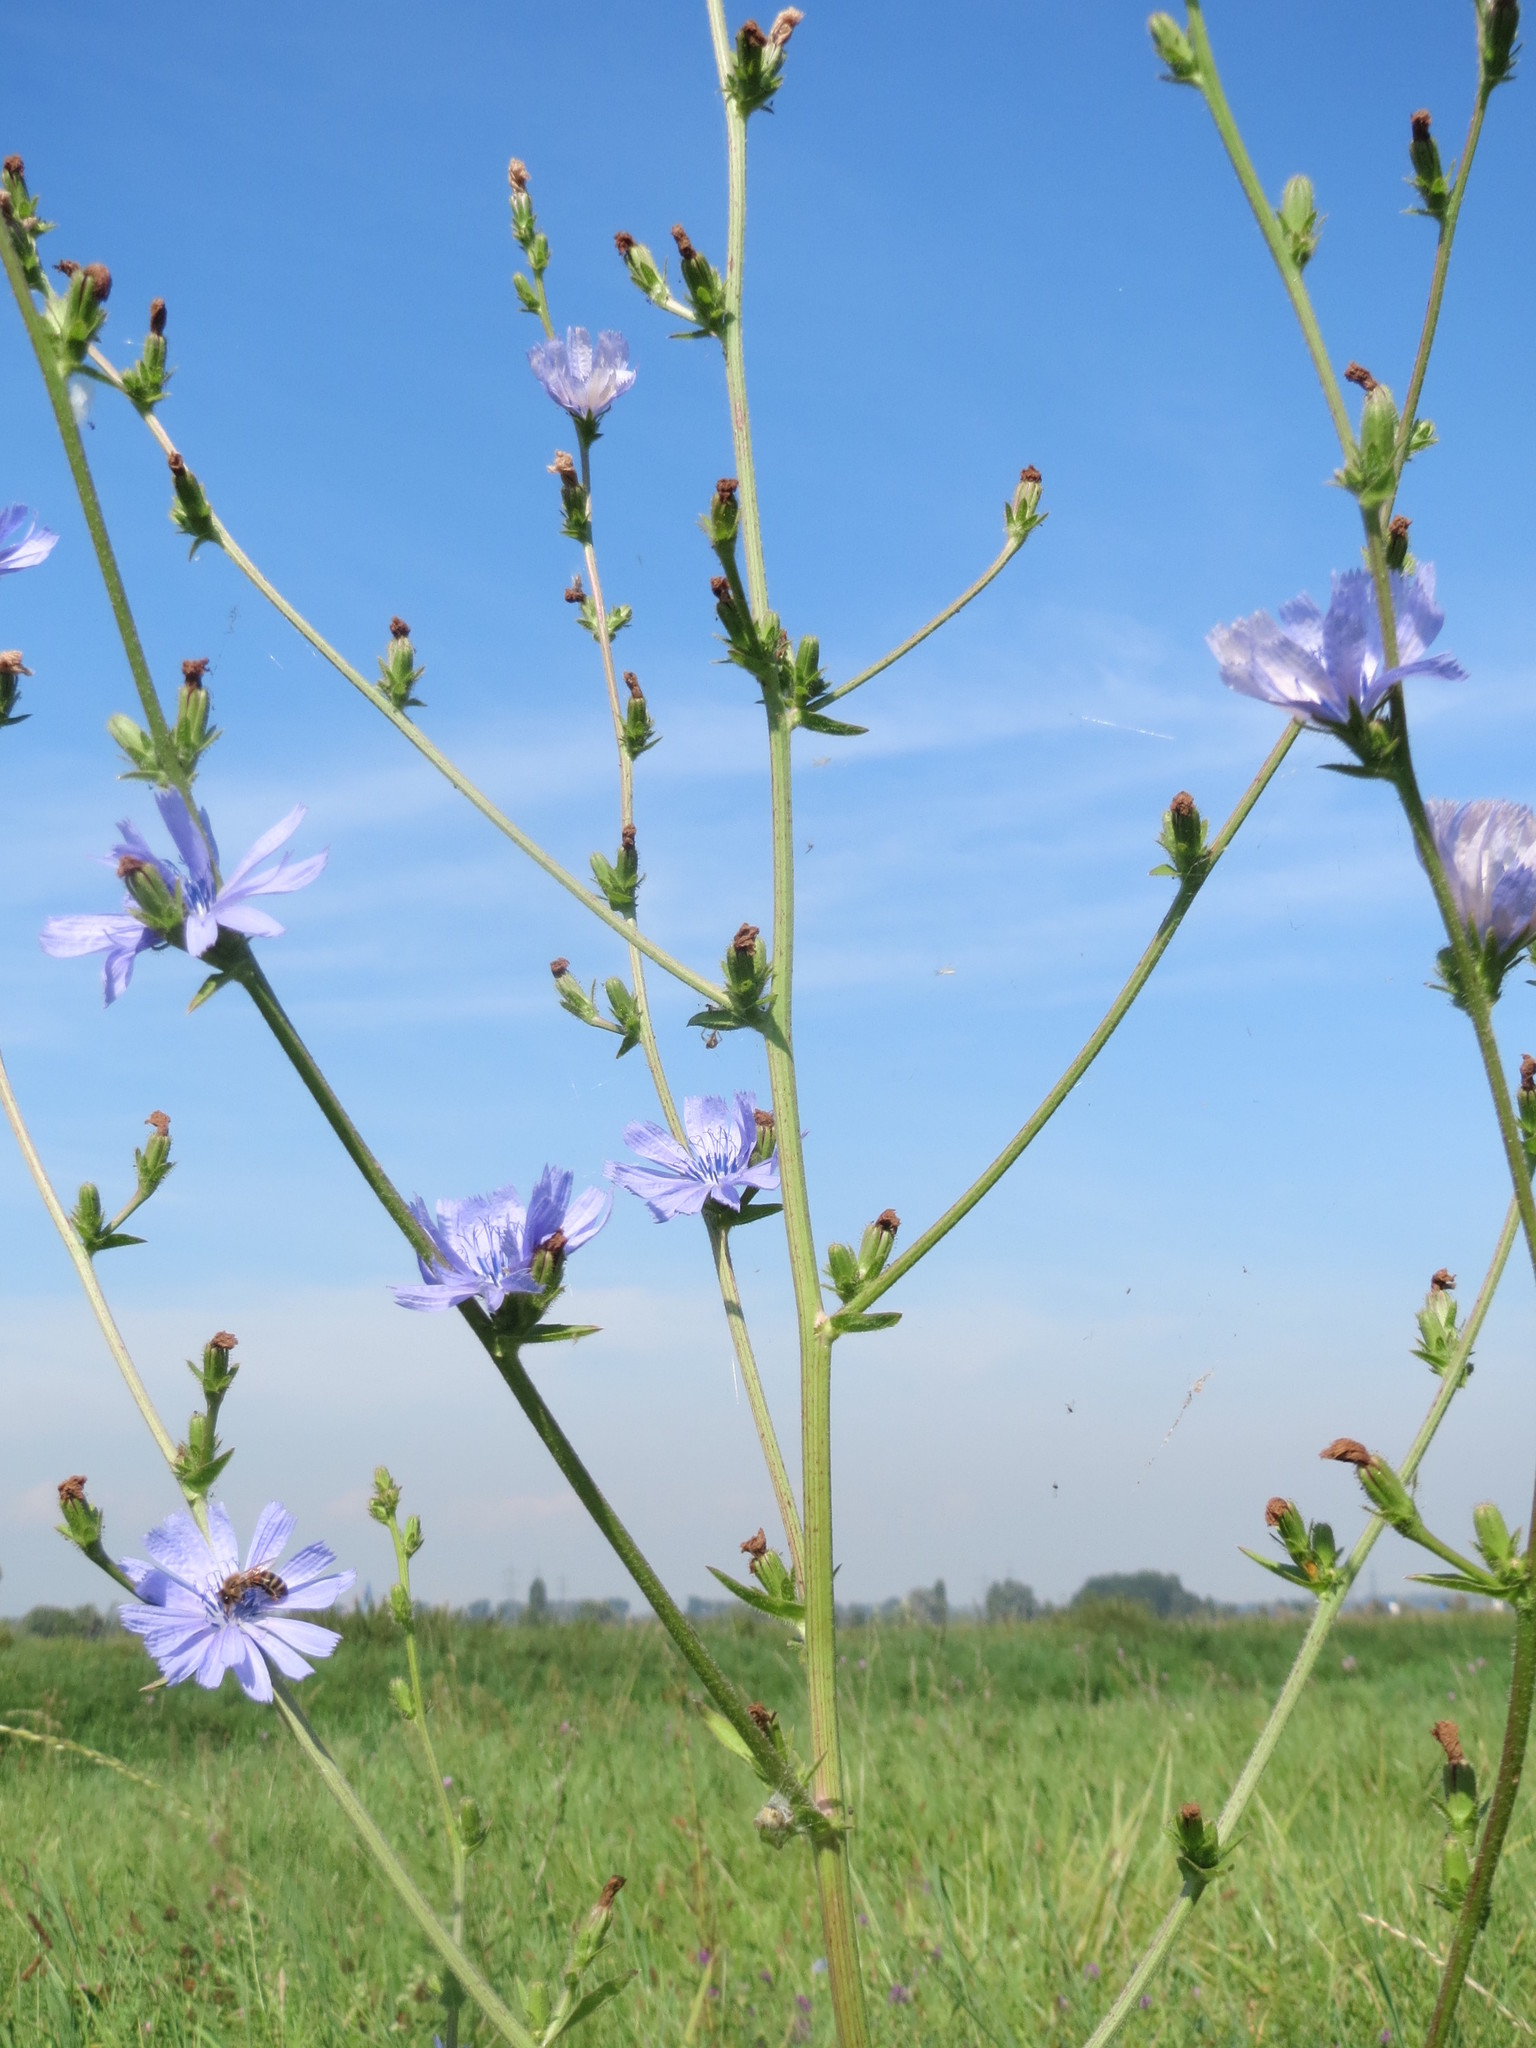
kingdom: Plantae
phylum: Tracheophyta
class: Magnoliopsida
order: Asterales
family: Asteraceae
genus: Cichorium
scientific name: Cichorium intybus
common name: Chicory
